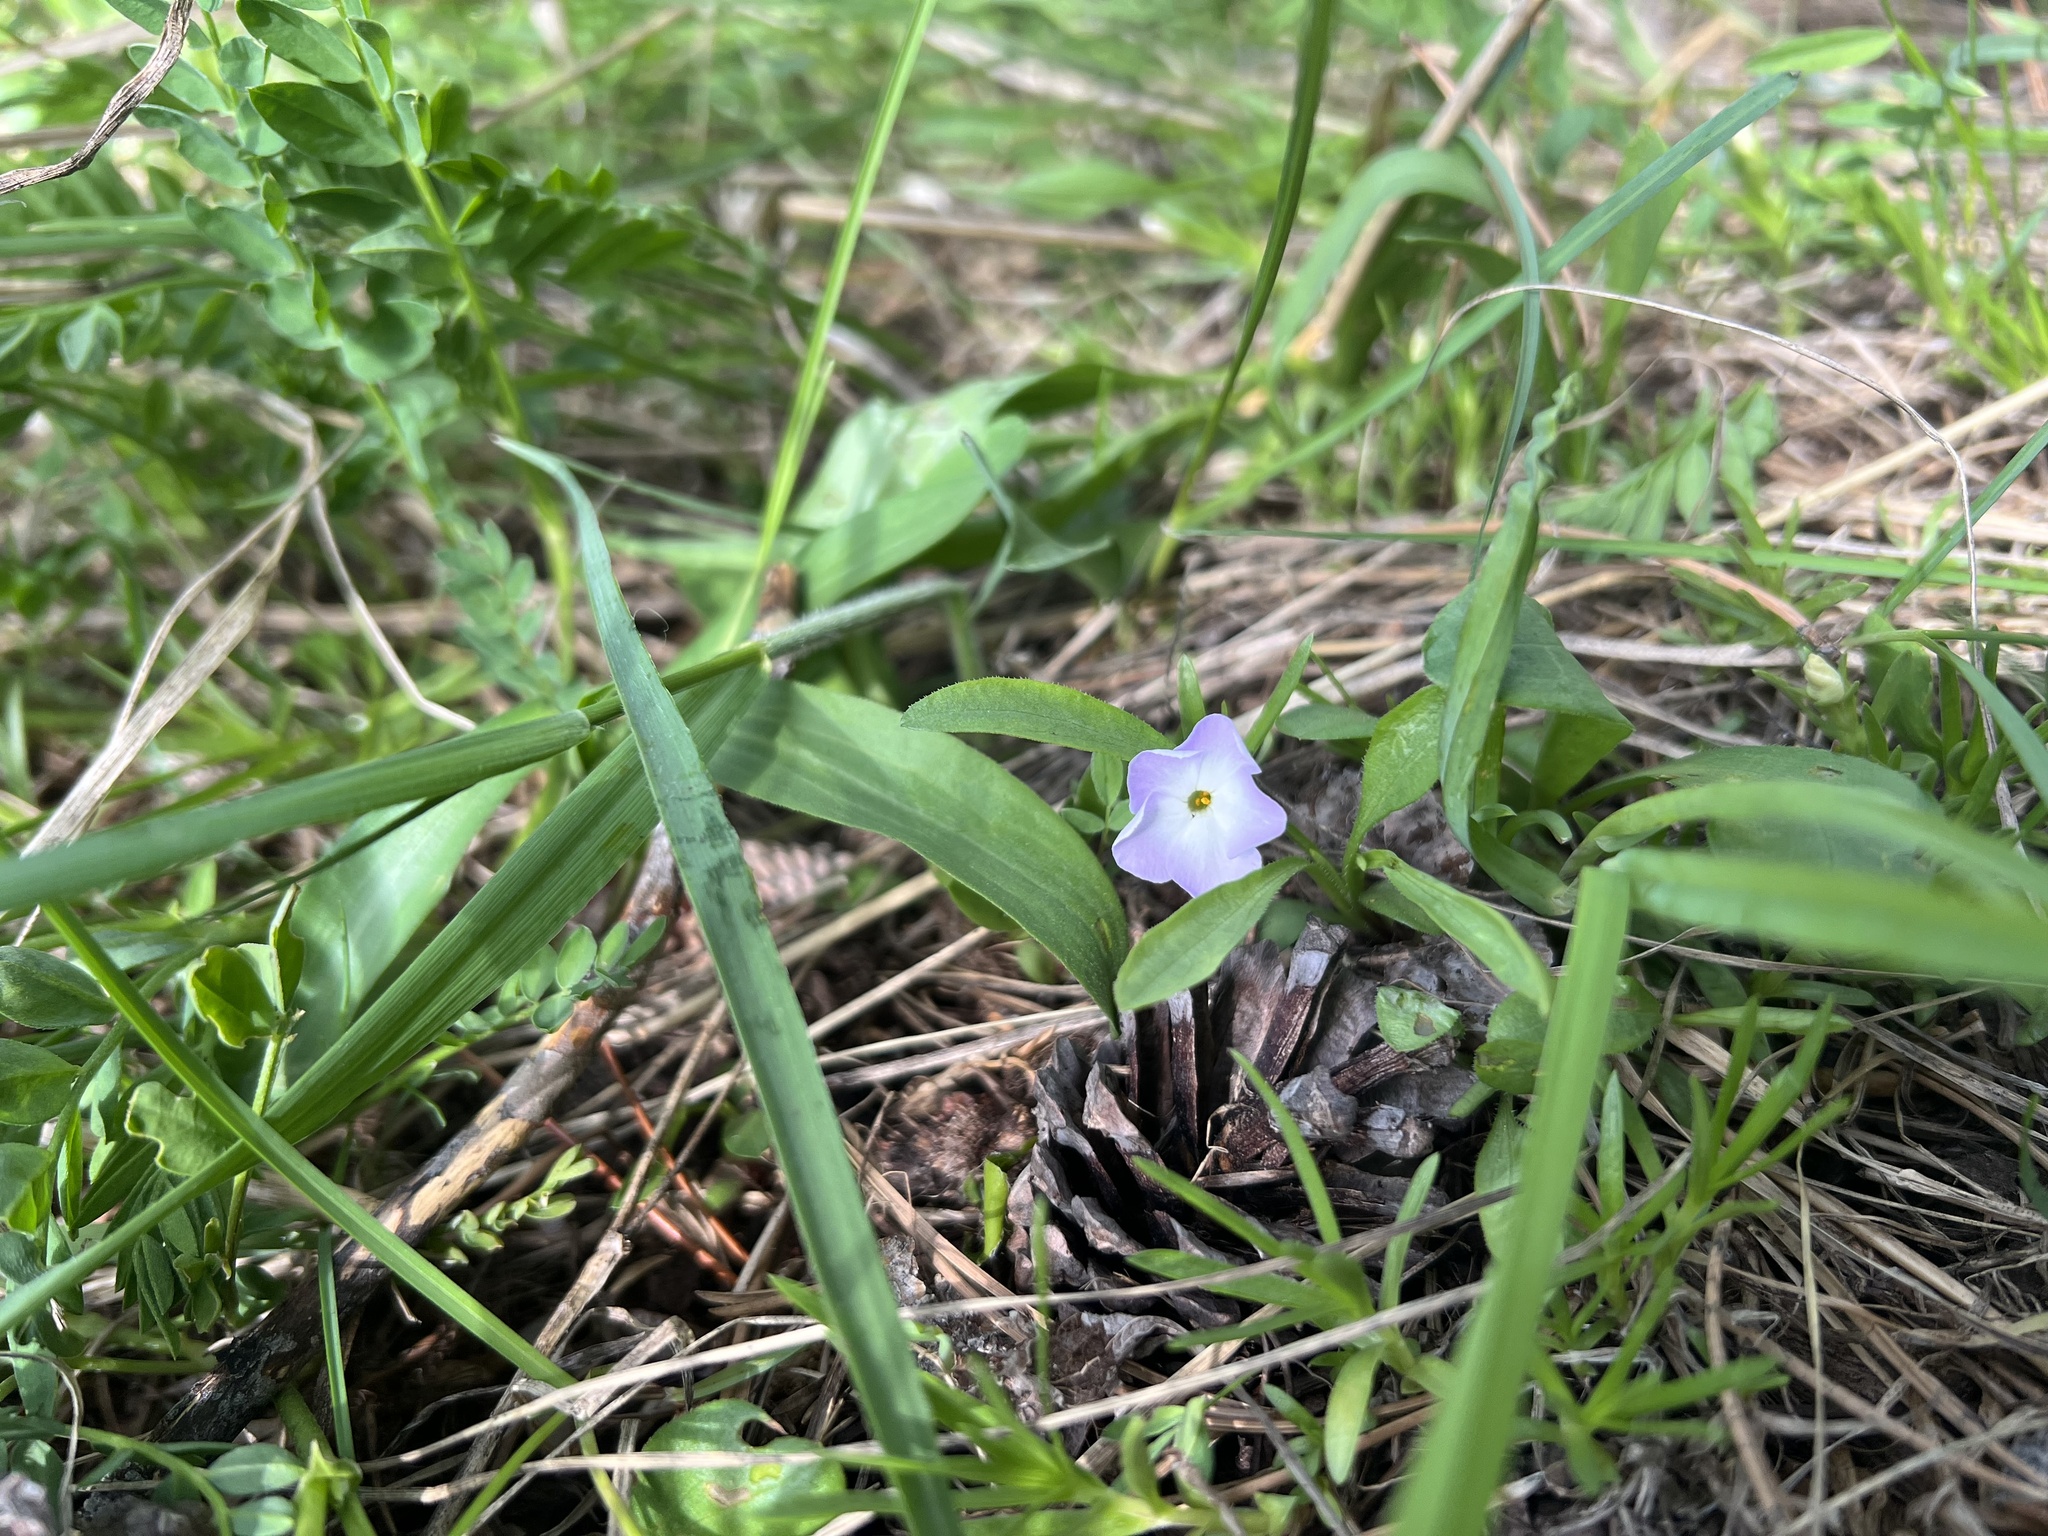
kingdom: Plantae
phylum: Tracheophyta
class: Magnoliopsida
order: Ericales
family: Polemoniaceae
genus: Phlox
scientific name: Phlox multiflora
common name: Rocky mountain phlox
